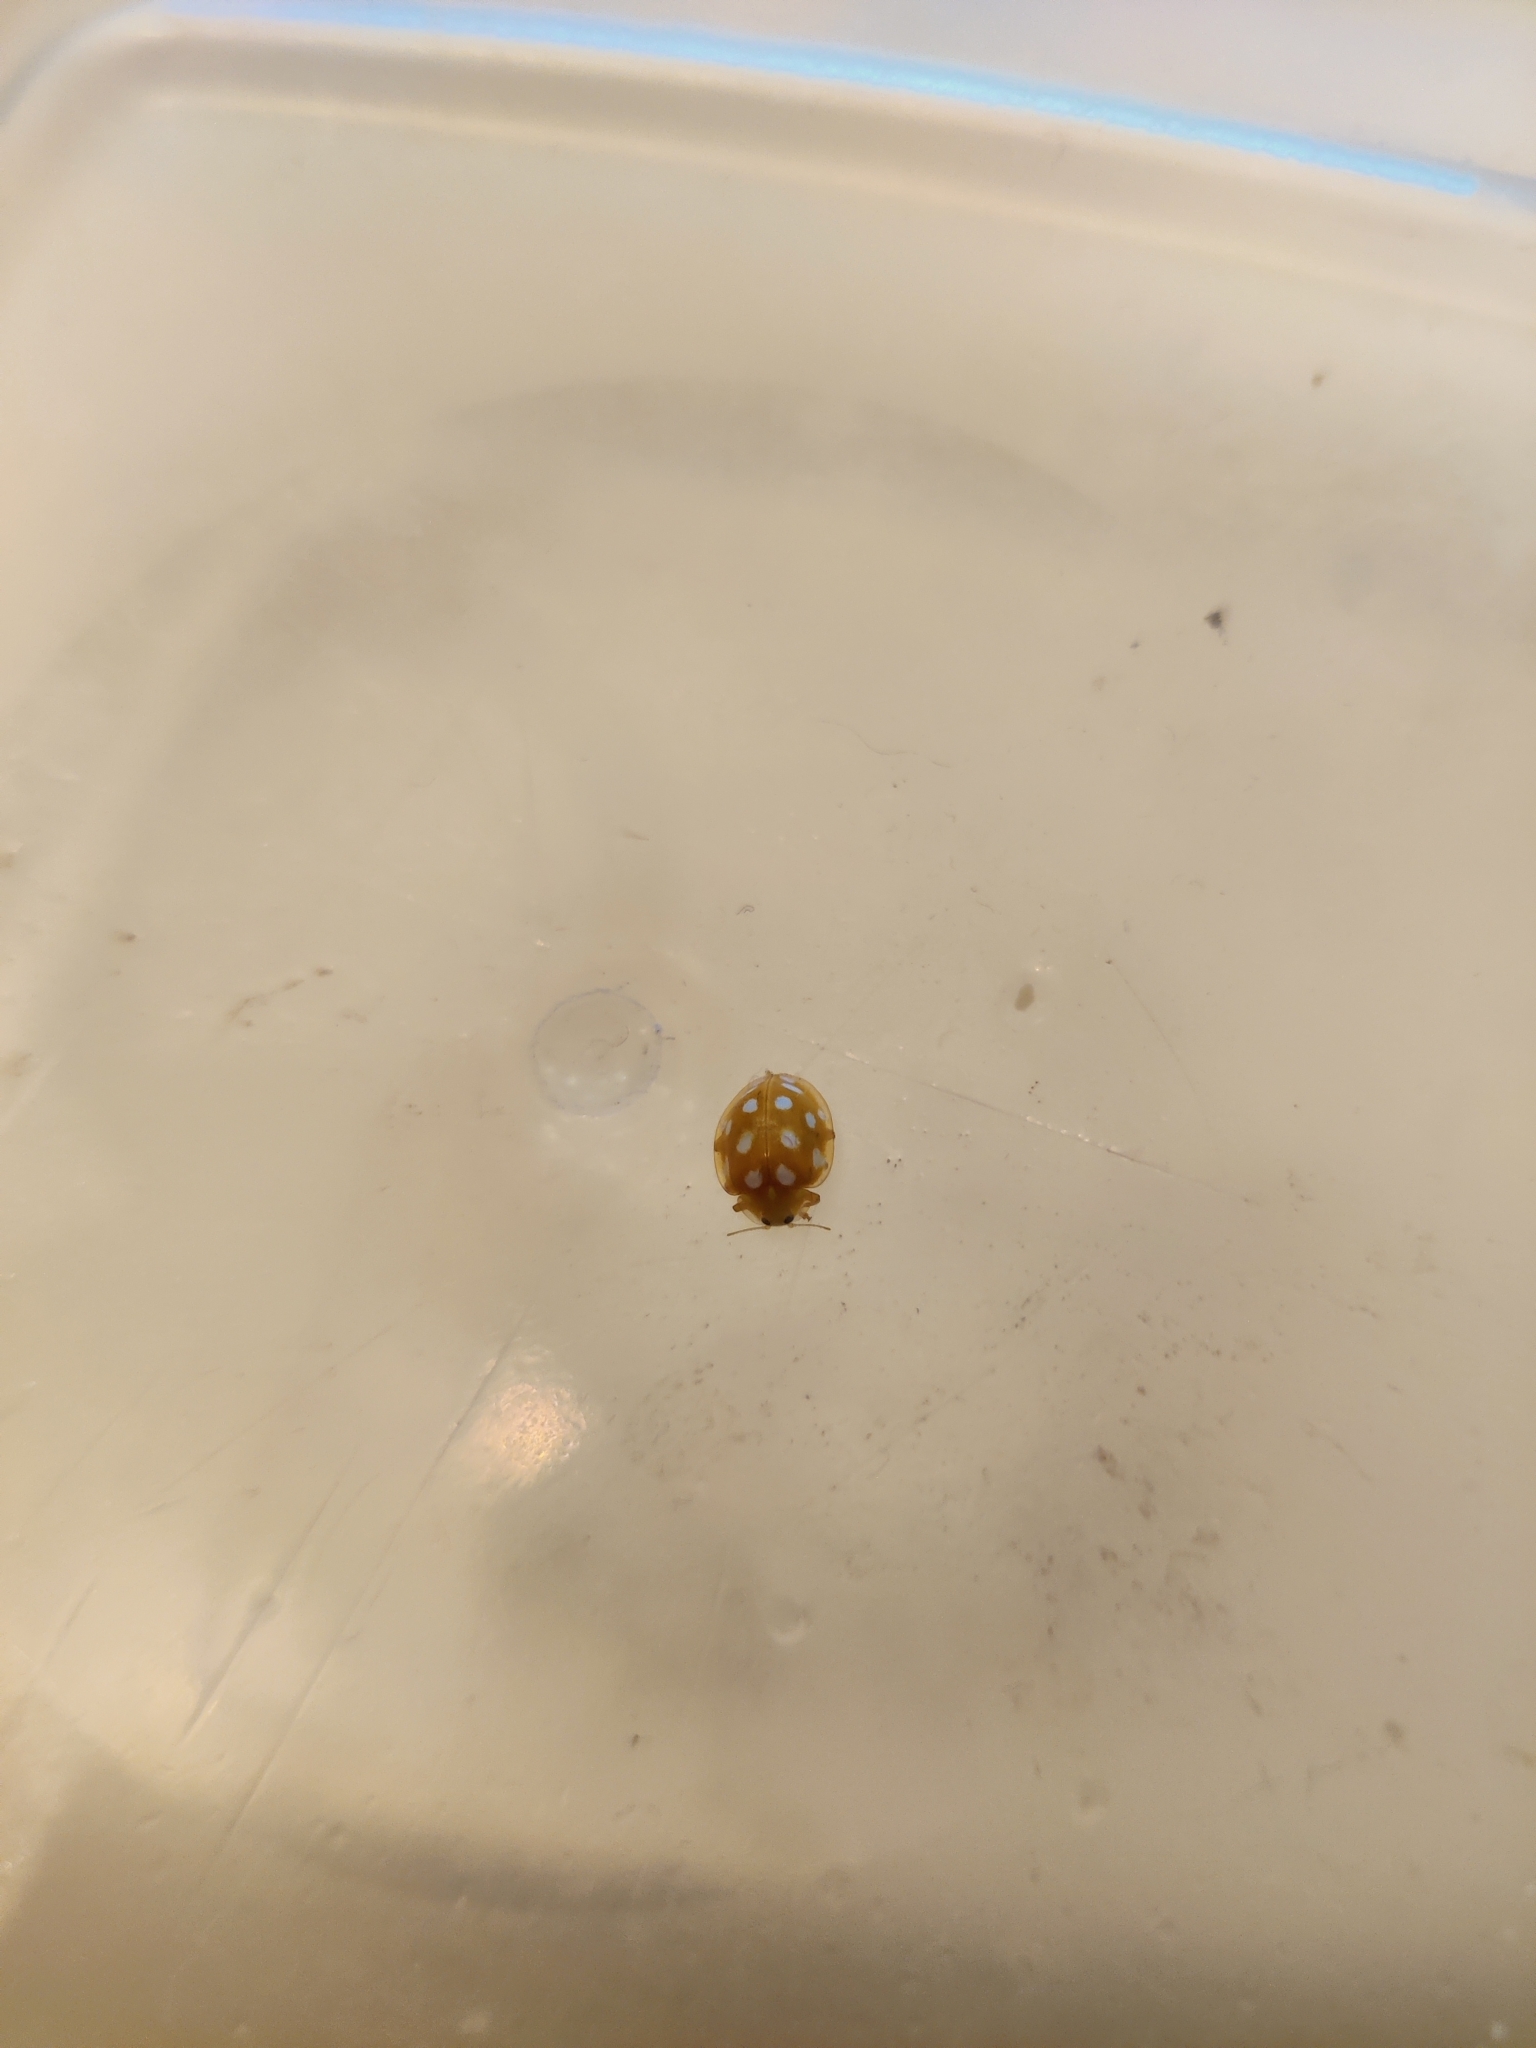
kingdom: Animalia
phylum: Arthropoda
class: Insecta
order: Coleoptera
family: Coccinellidae
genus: Halyzia
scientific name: Halyzia sedecimguttata
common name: Orange ladybird
